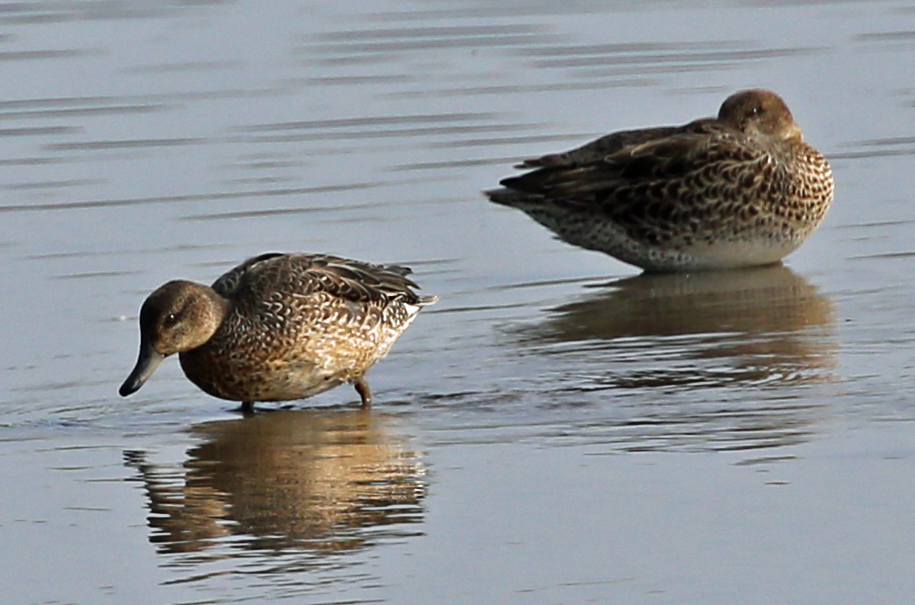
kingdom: Animalia
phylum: Chordata
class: Aves
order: Anseriformes
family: Anatidae
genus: Anas
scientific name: Anas crecca
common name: Eurasian teal
